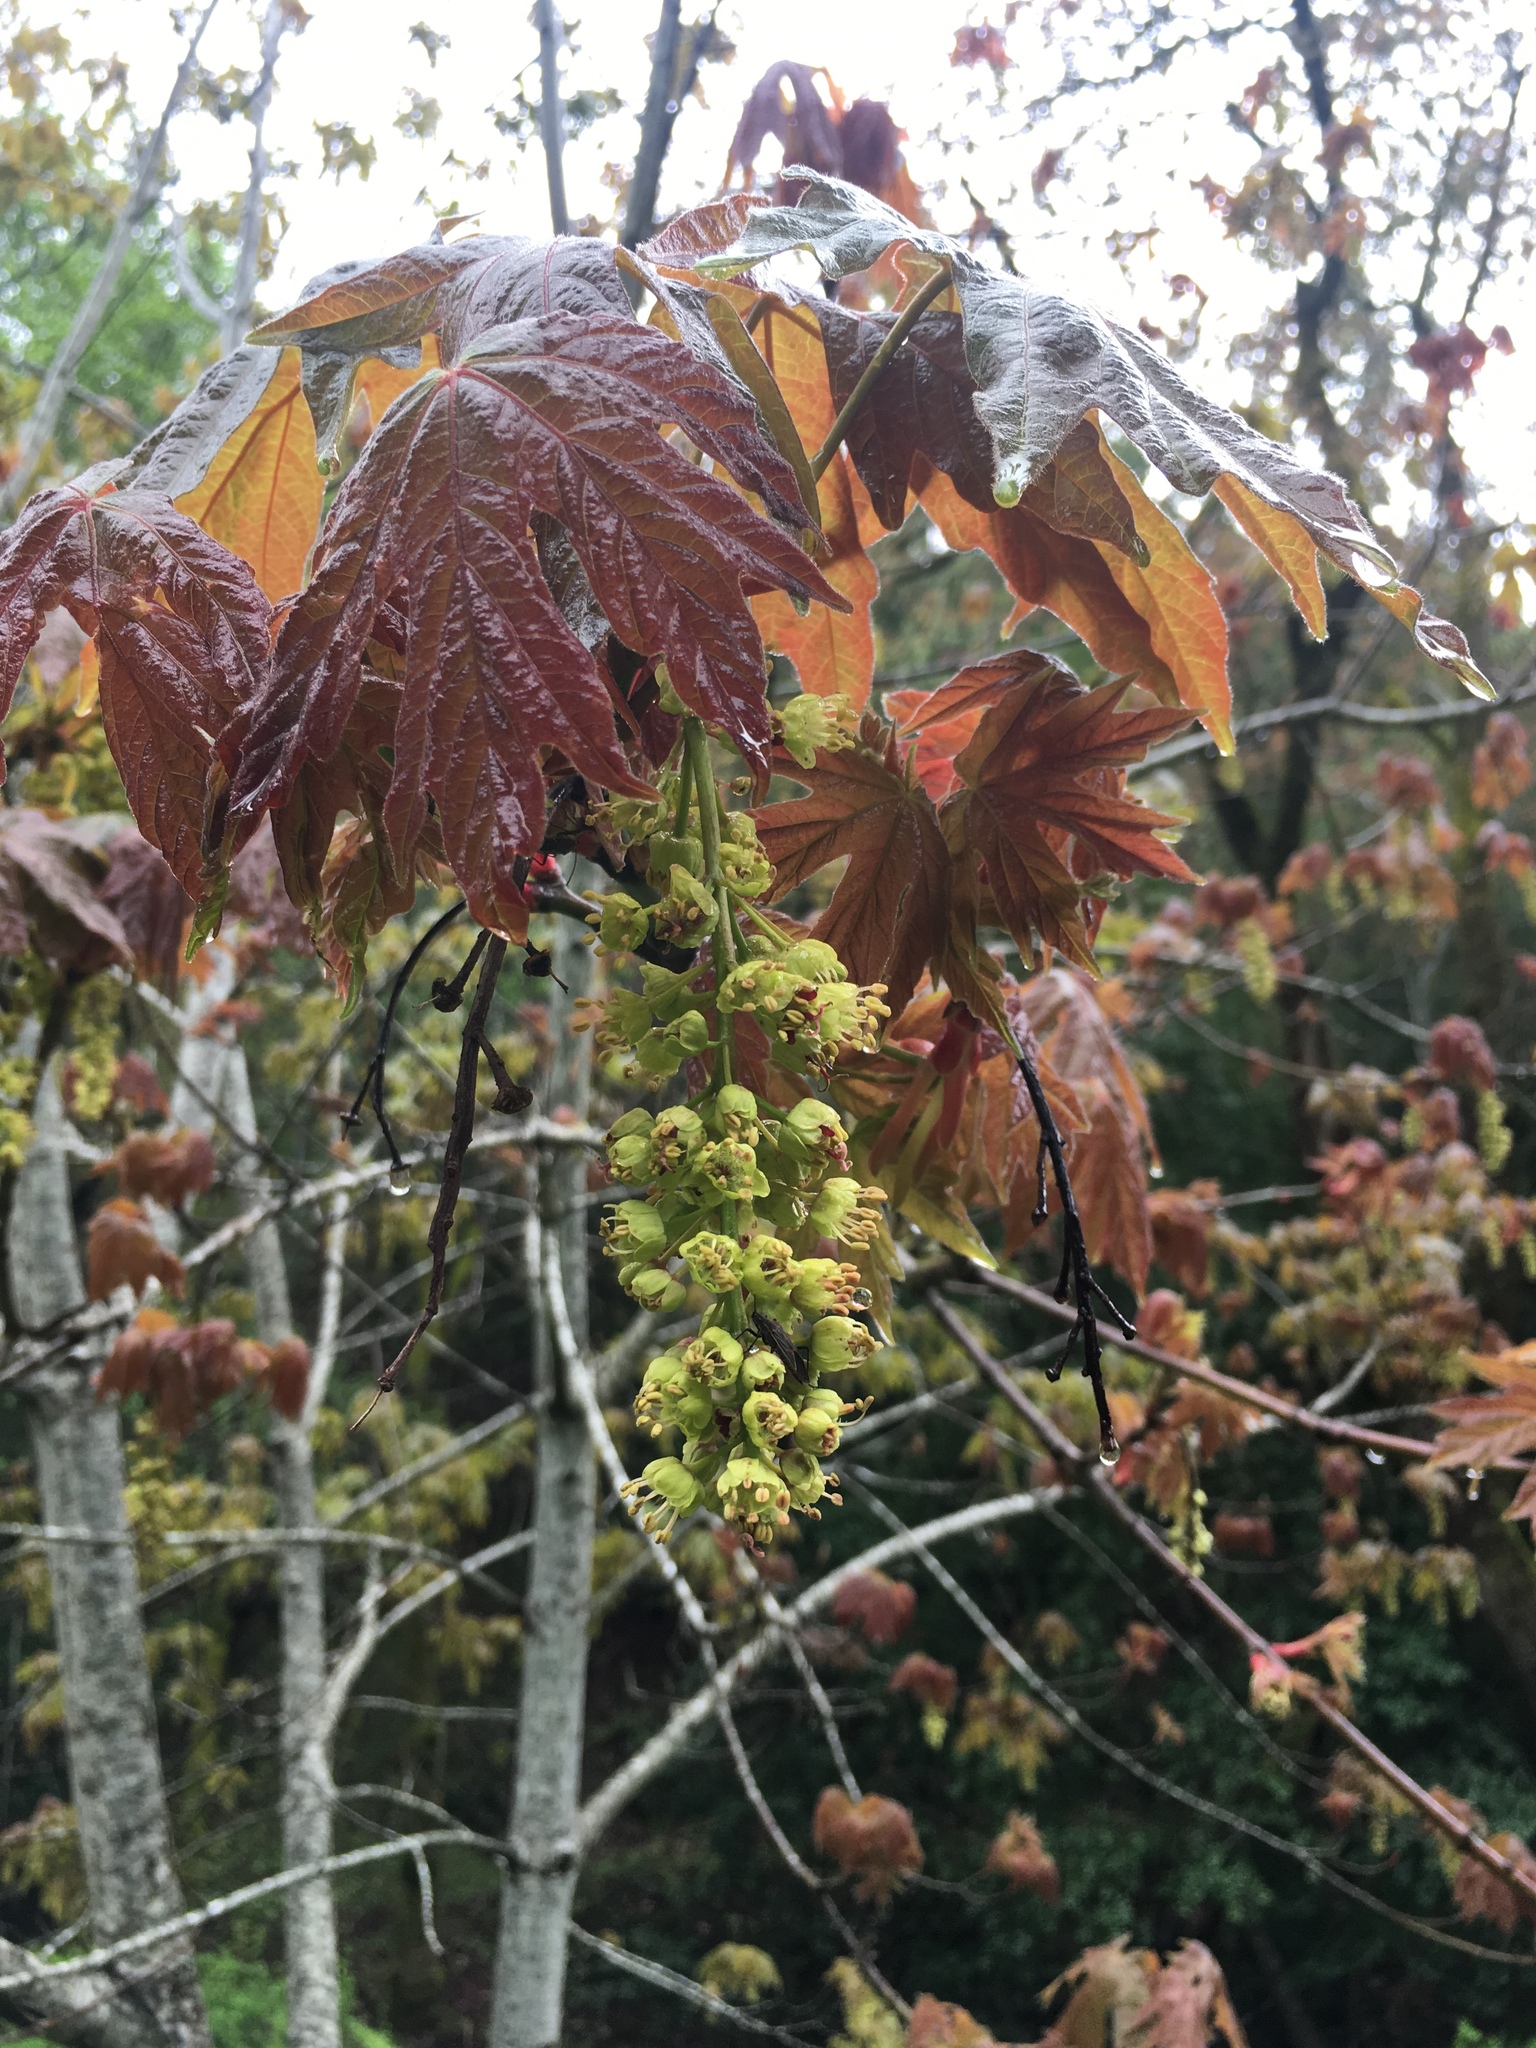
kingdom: Plantae
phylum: Tracheophyta
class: Magnoliopsida
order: Sapindales
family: Sapindaceae
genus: Acer
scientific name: Acer macrophyllum
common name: Oregon maple
